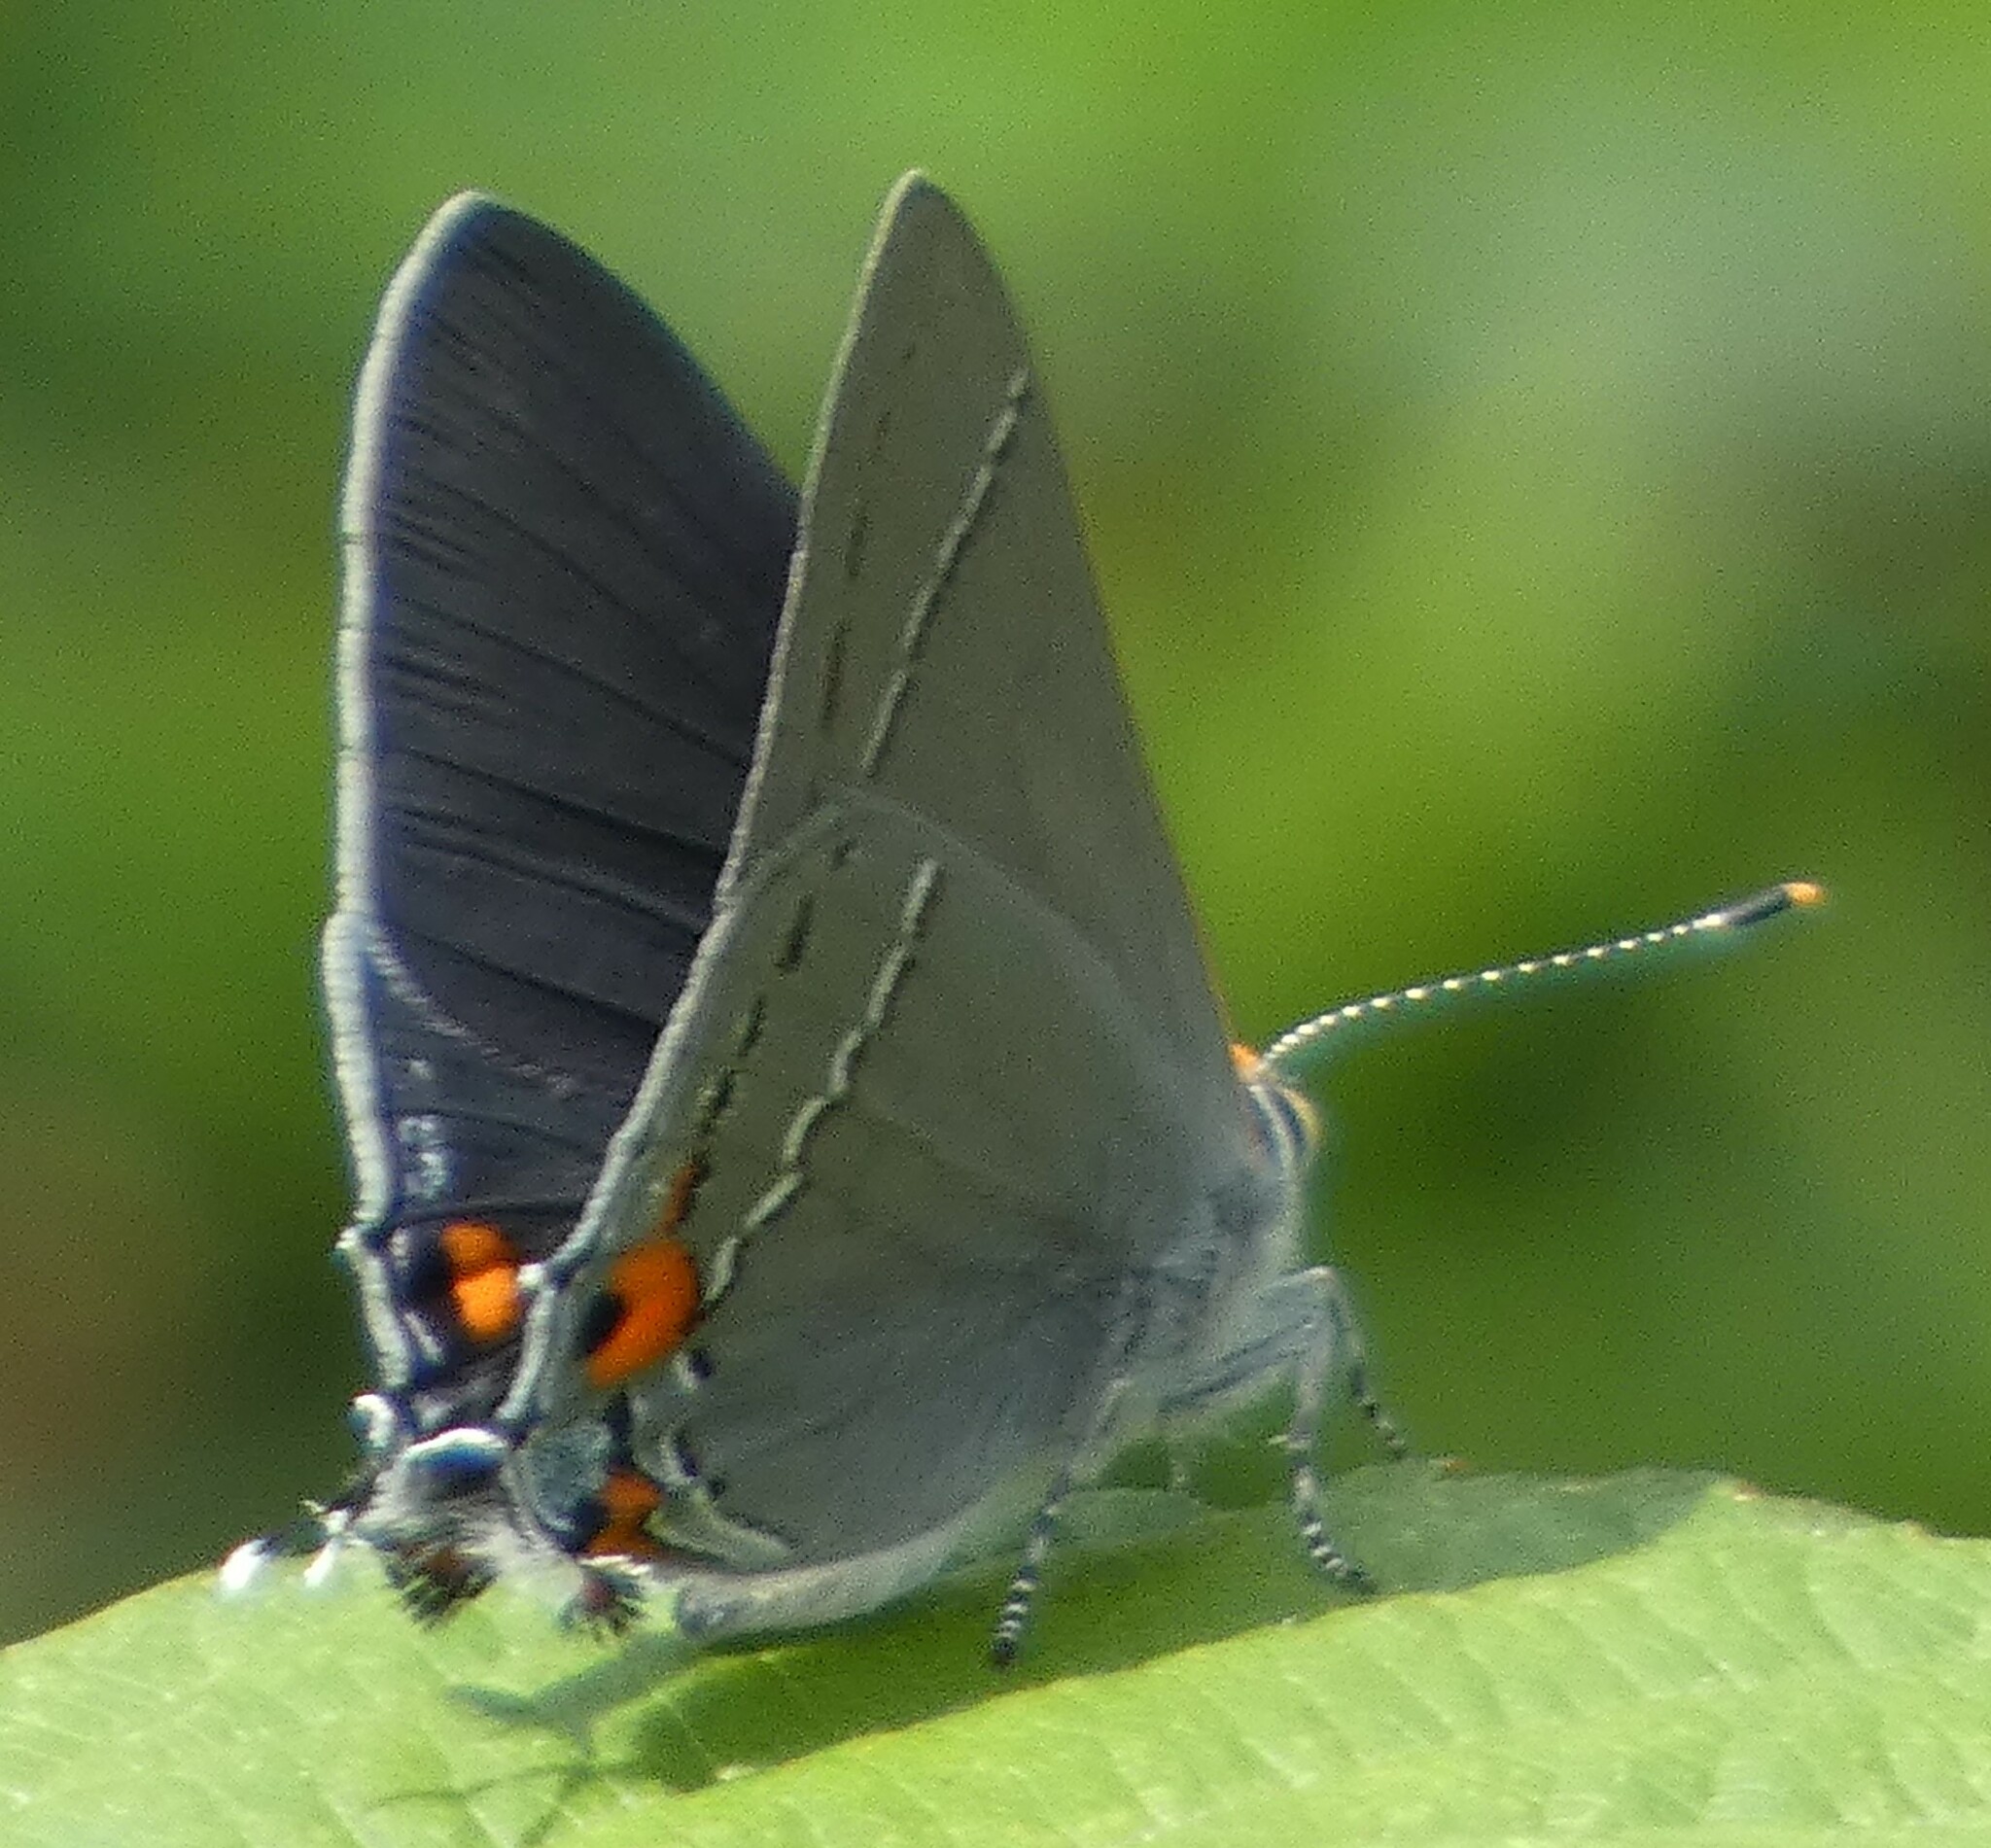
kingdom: Animalia
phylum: Arthropoda
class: Insecta
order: Lepidoptera
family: Lycaenidae
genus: Strymon
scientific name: Strymon melinus
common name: Gray hairstreak
